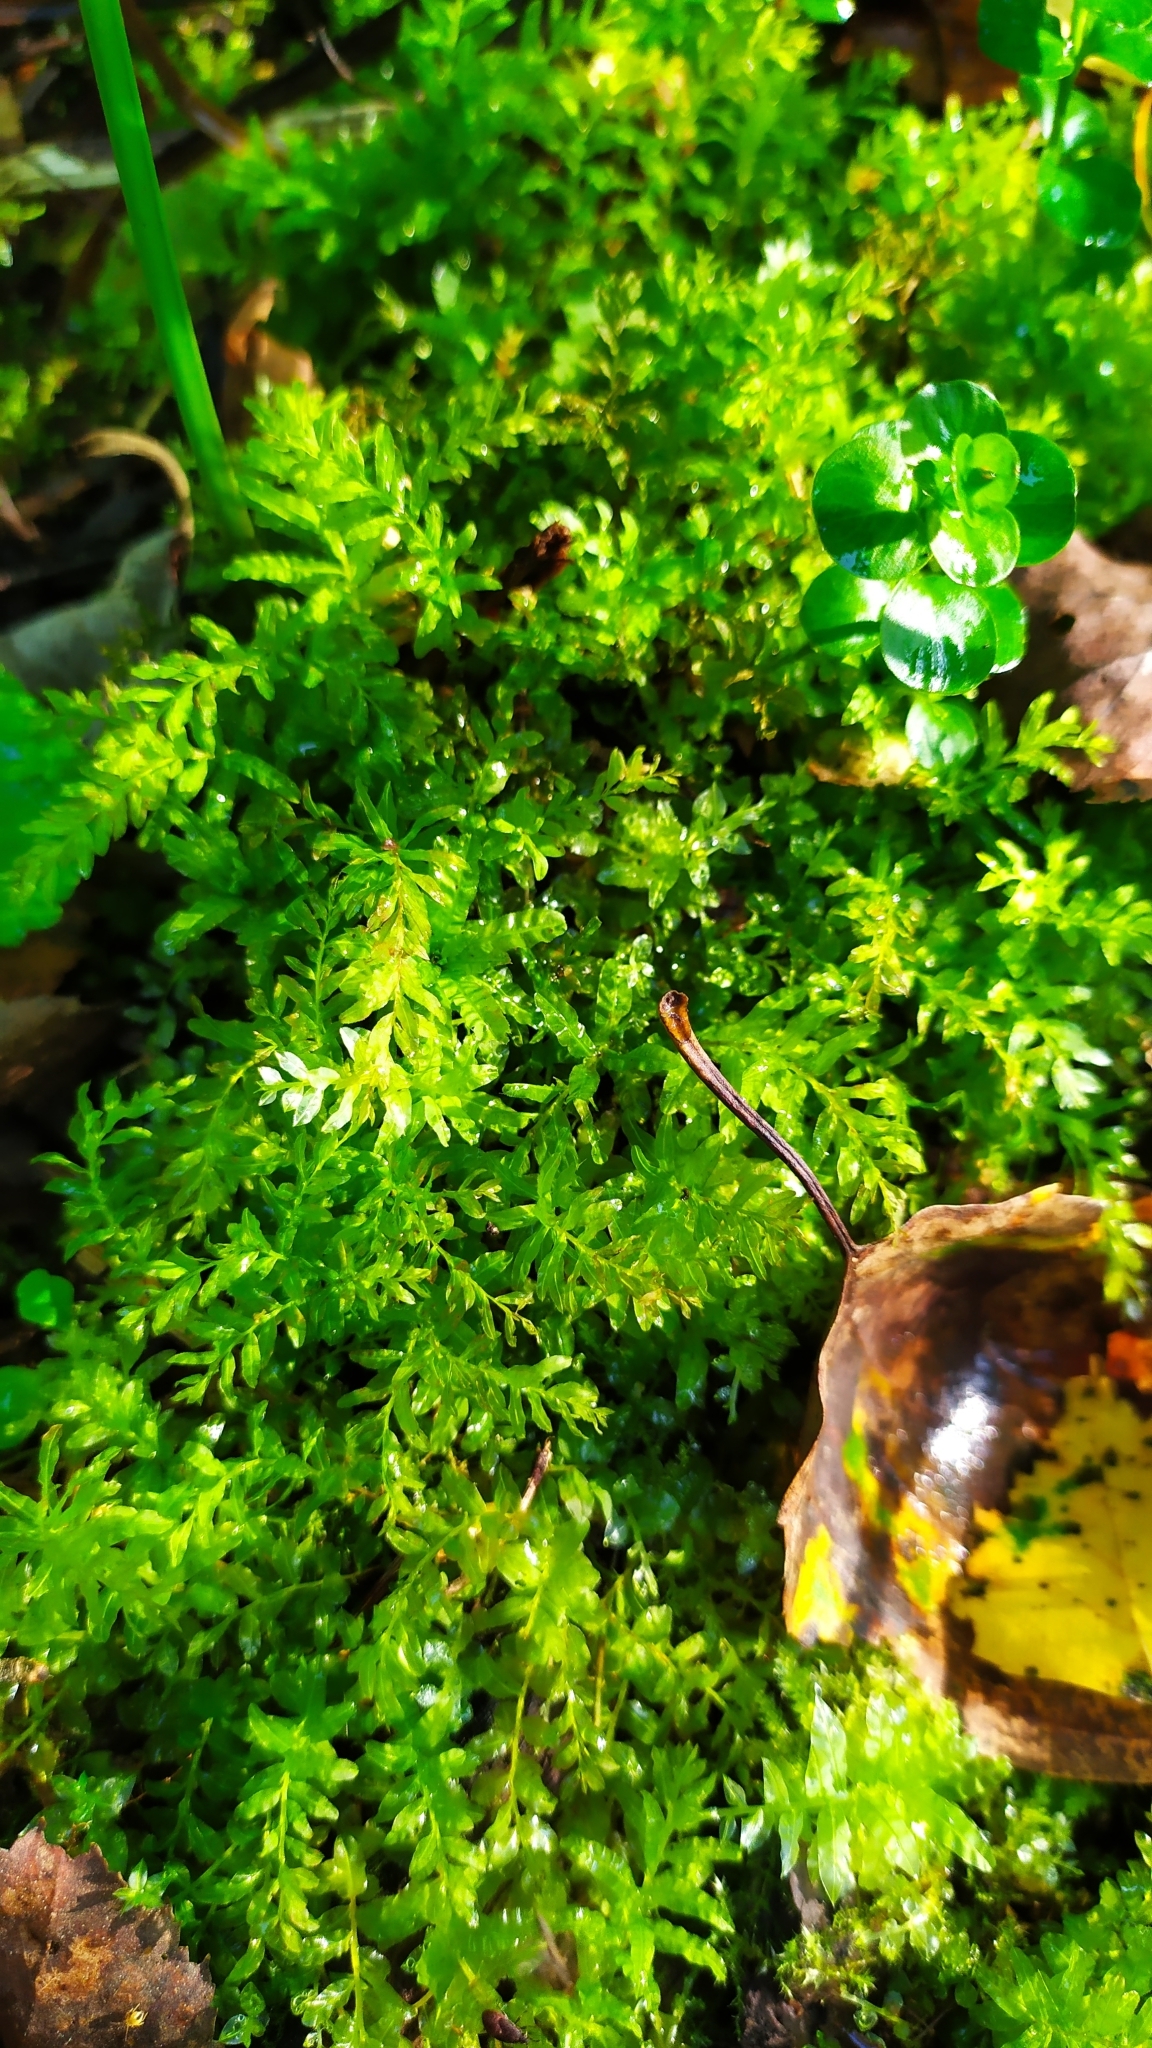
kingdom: Plantae
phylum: Bryophyta
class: Bryopsida
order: Bryales
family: Mniaceae
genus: Plagiomnium
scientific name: Plagiomnium undulatum
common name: Hart's-tongue thyme-moss
